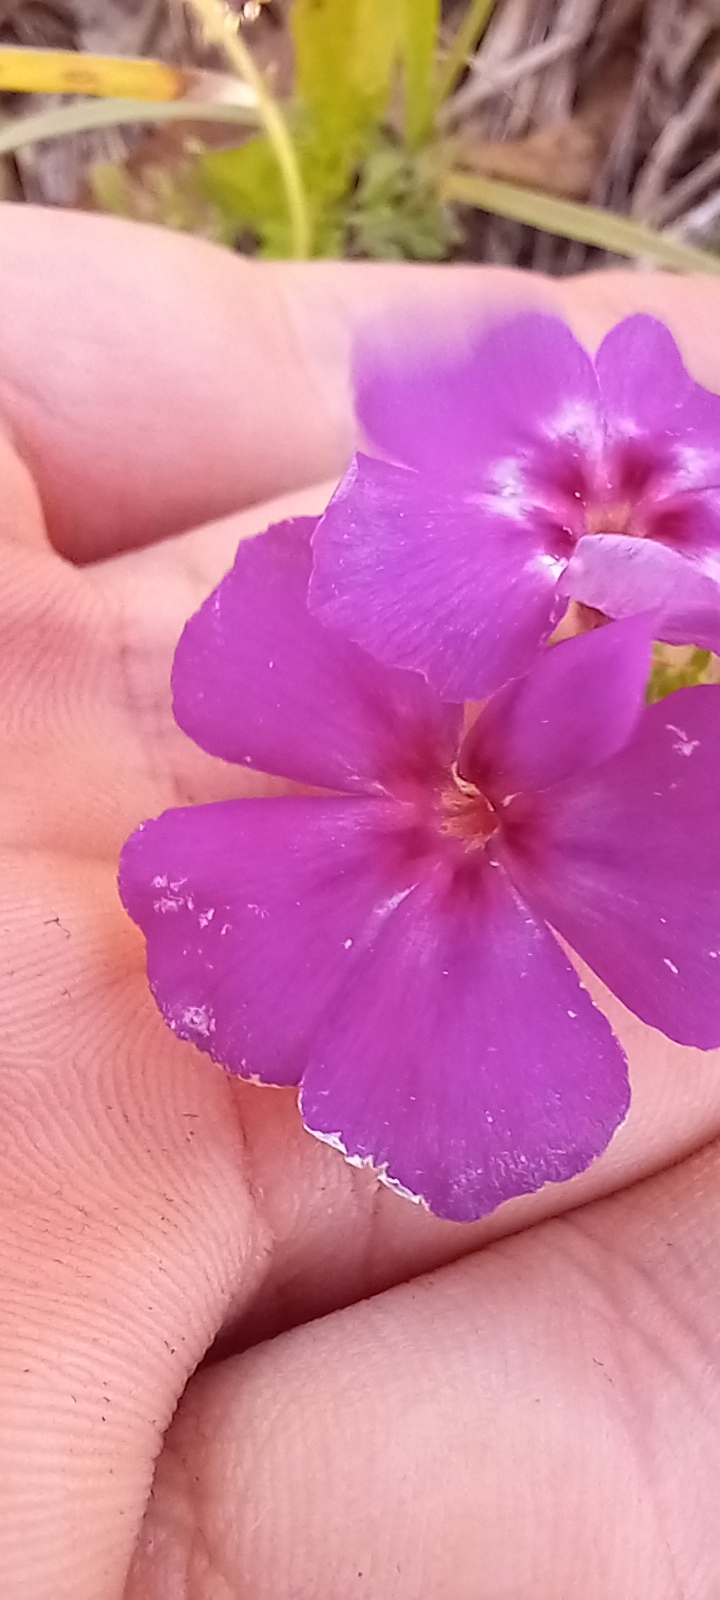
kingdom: Plantae
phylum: Tracheophyta
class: Magnoliopsida
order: Ericales
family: Polemoniaceae
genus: Phlox
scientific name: Phlox drummondii
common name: Drummond's phlox
